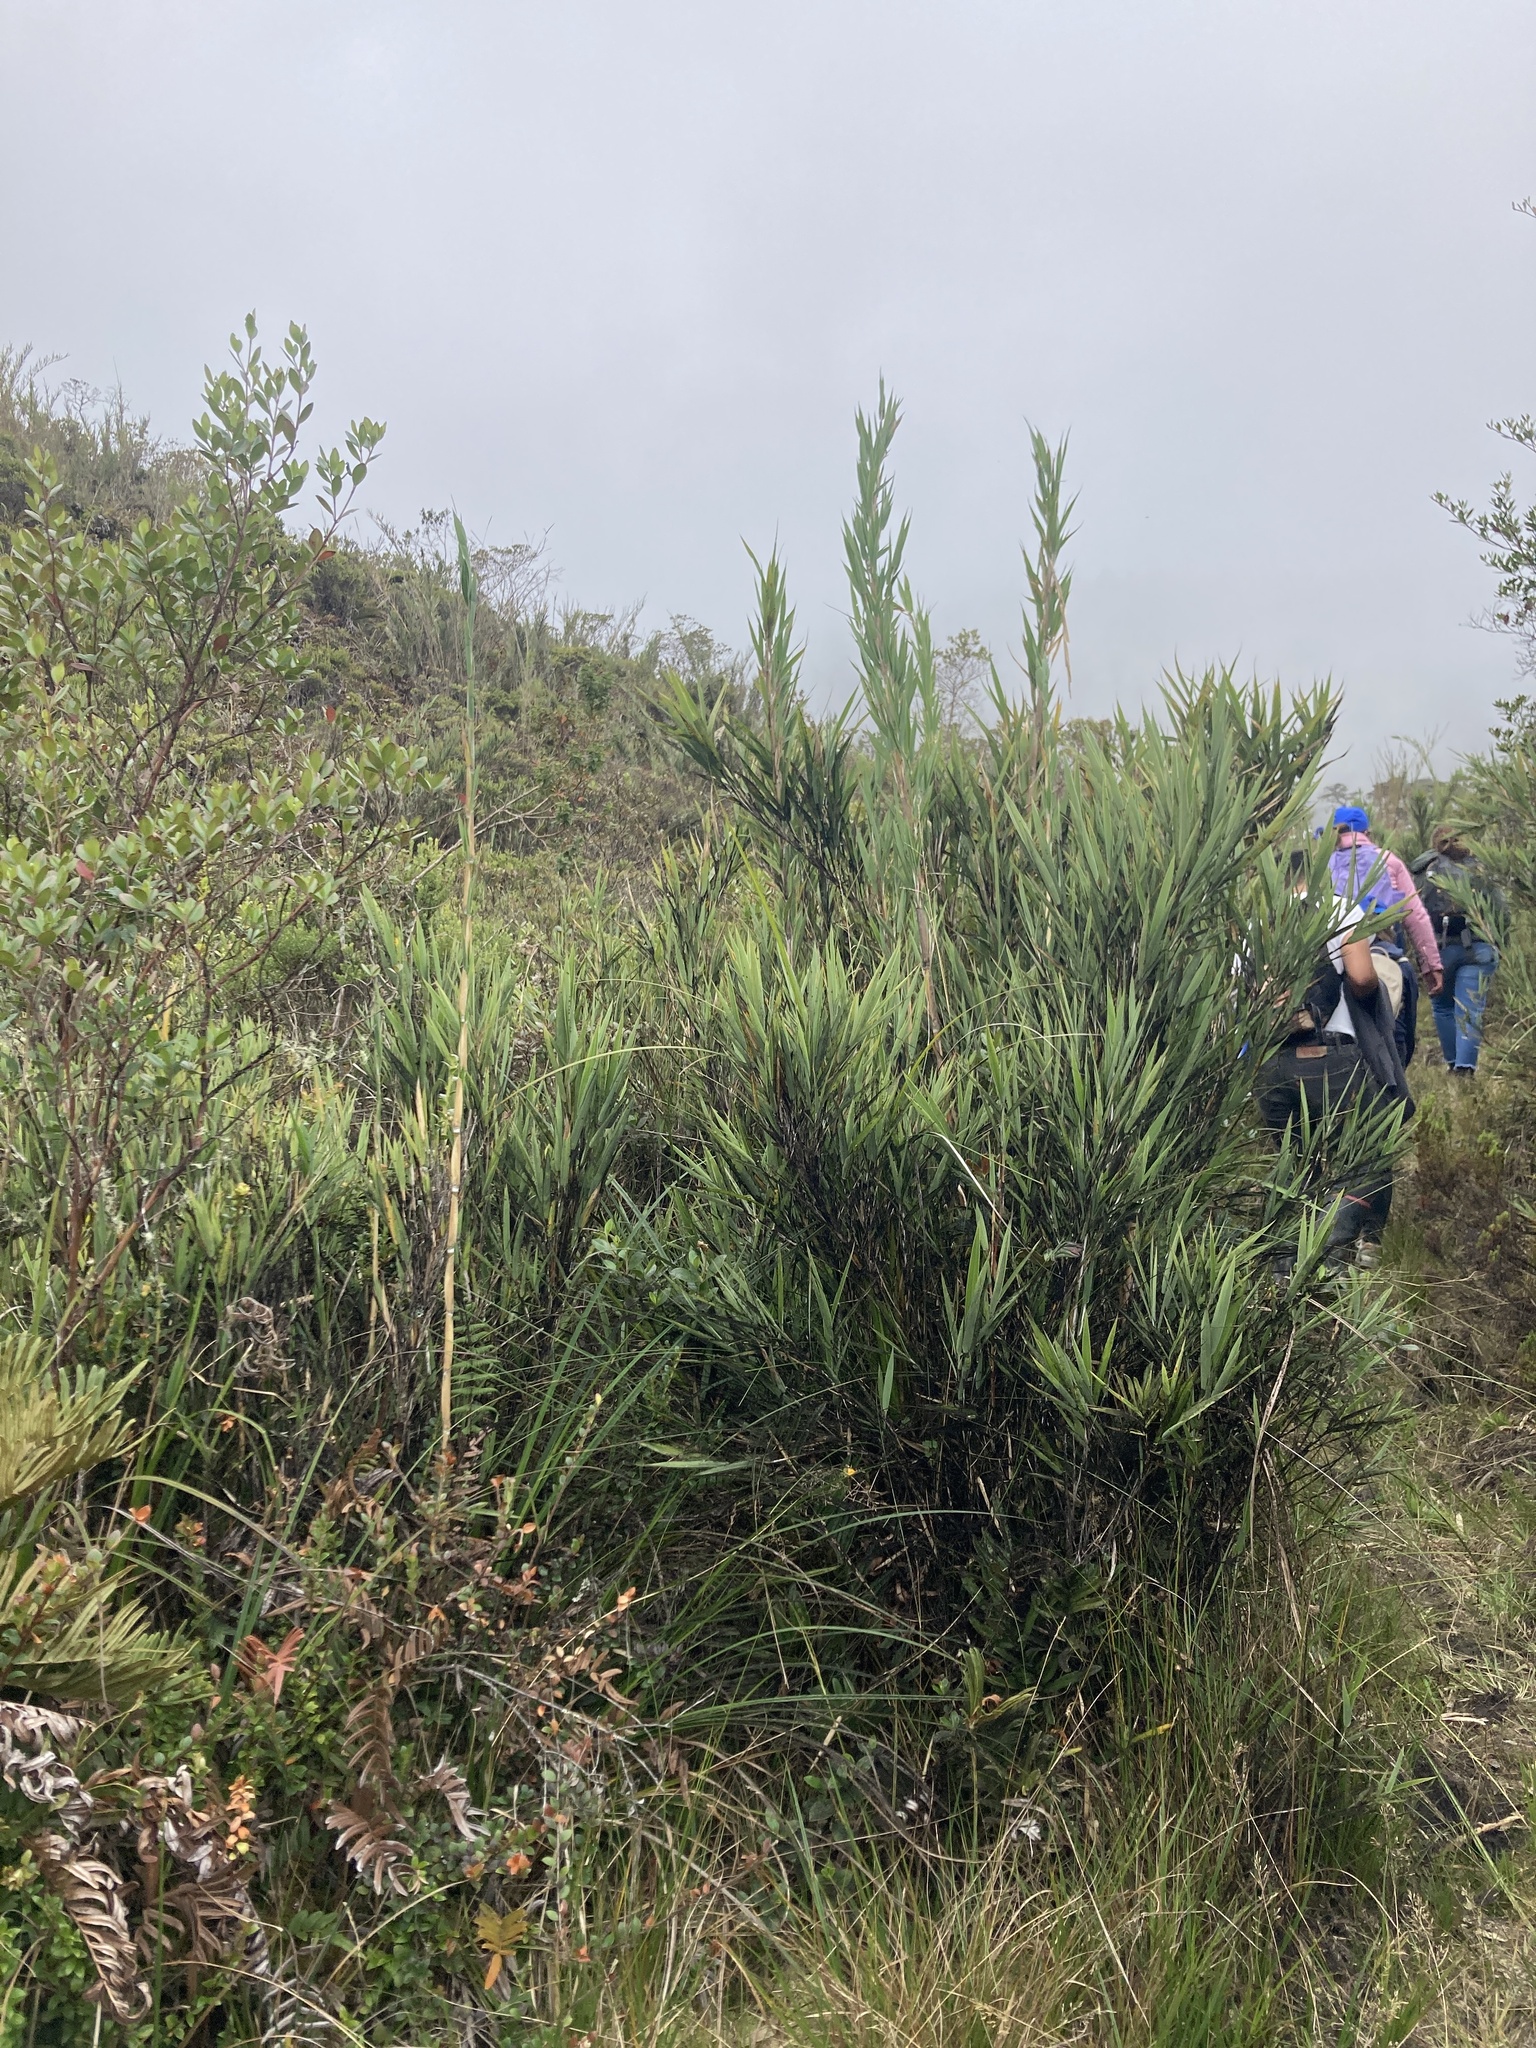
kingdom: Plantae
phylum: Tracheophyta
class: Liliopsida
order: Poales
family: Poaceae
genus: Chusquea
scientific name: Chusquea tessellata
